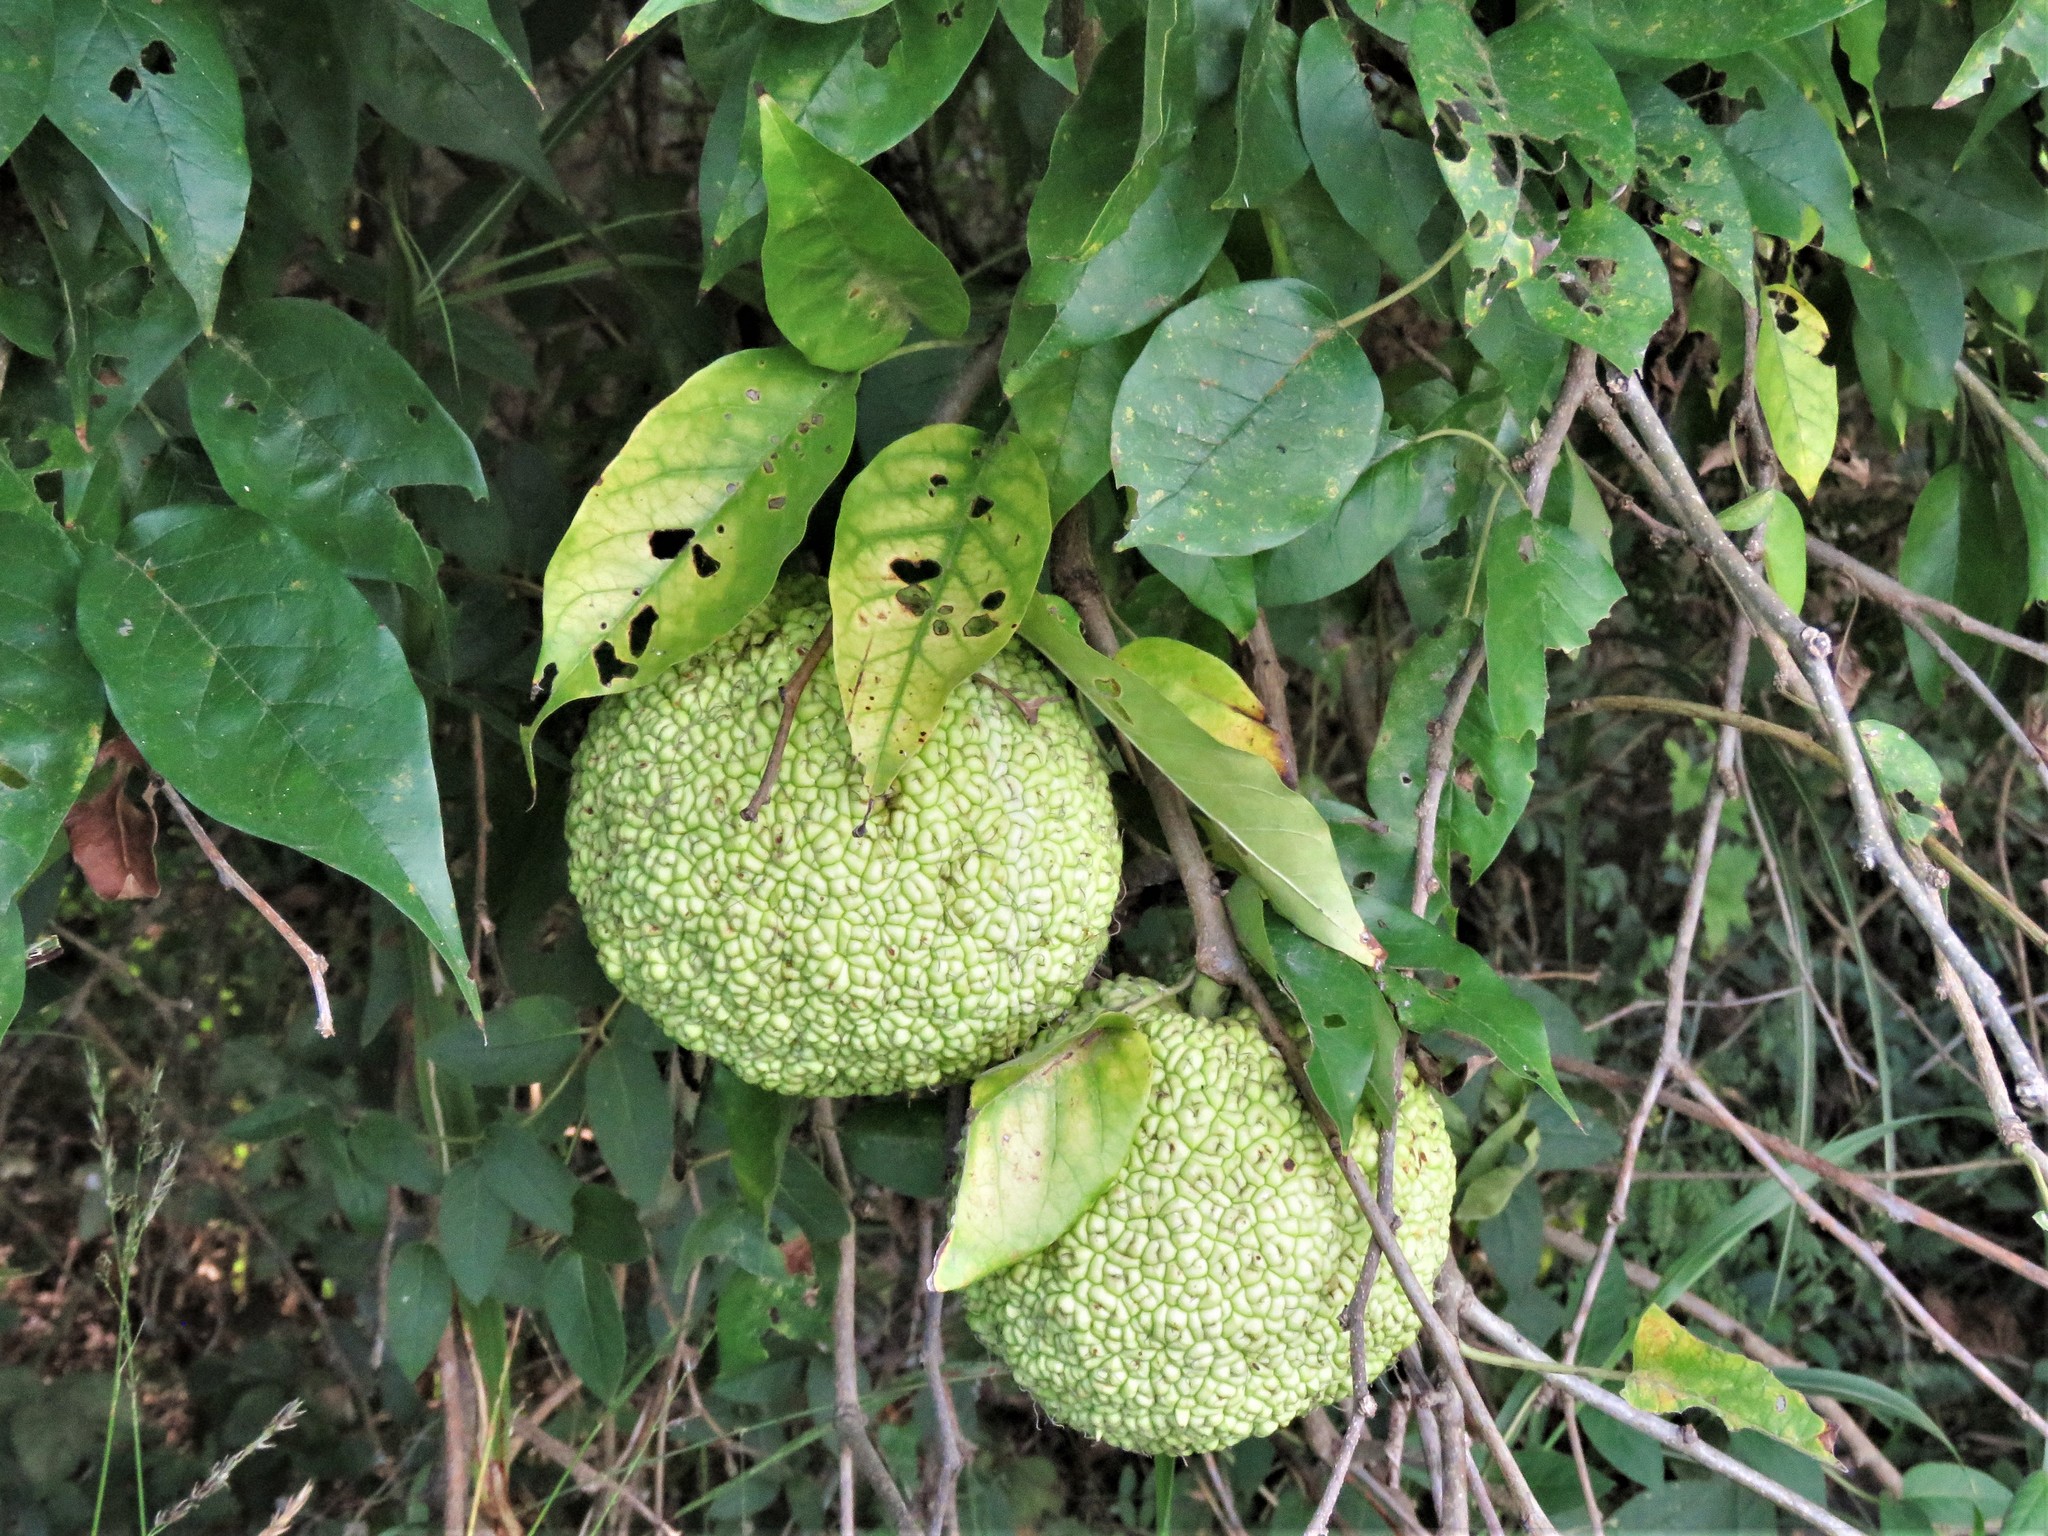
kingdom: Plantae
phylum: Tracheophyta
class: Magnoliopsida
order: Rosales
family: Moraceae
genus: Maclura
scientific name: Maclura pomifera
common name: Osage-orange
